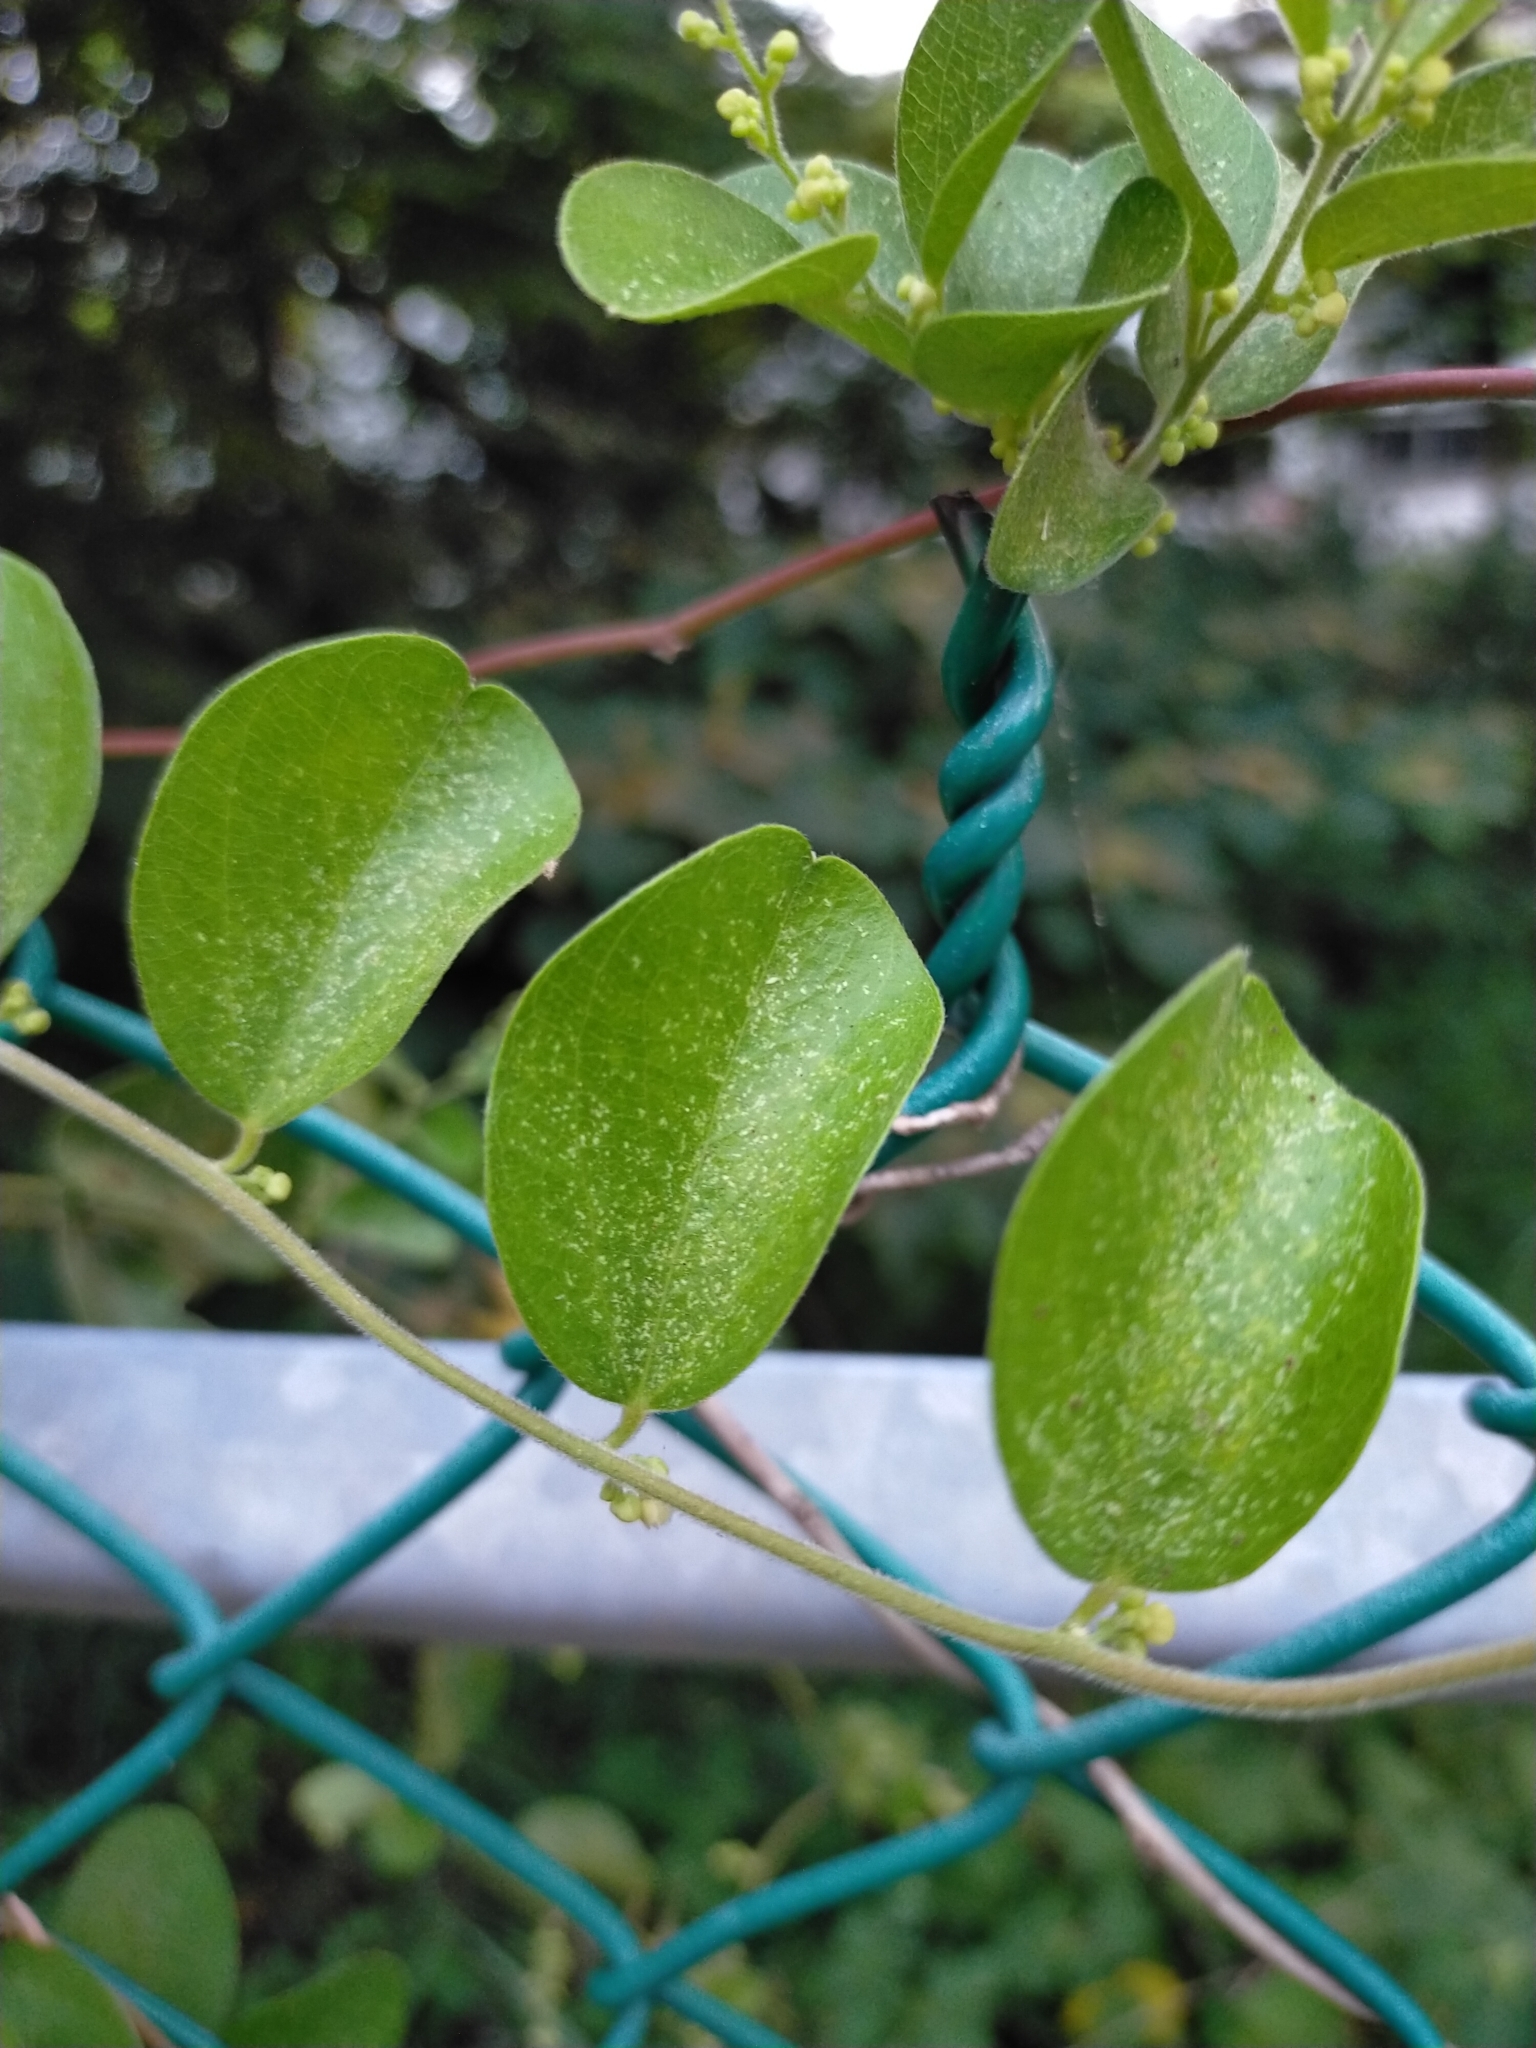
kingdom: Plantae
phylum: Tracheophyta
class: Magnoliopsida
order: Ranunculales
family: Menispermaceae
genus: Cocculus
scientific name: Cocculus orbiculatus
